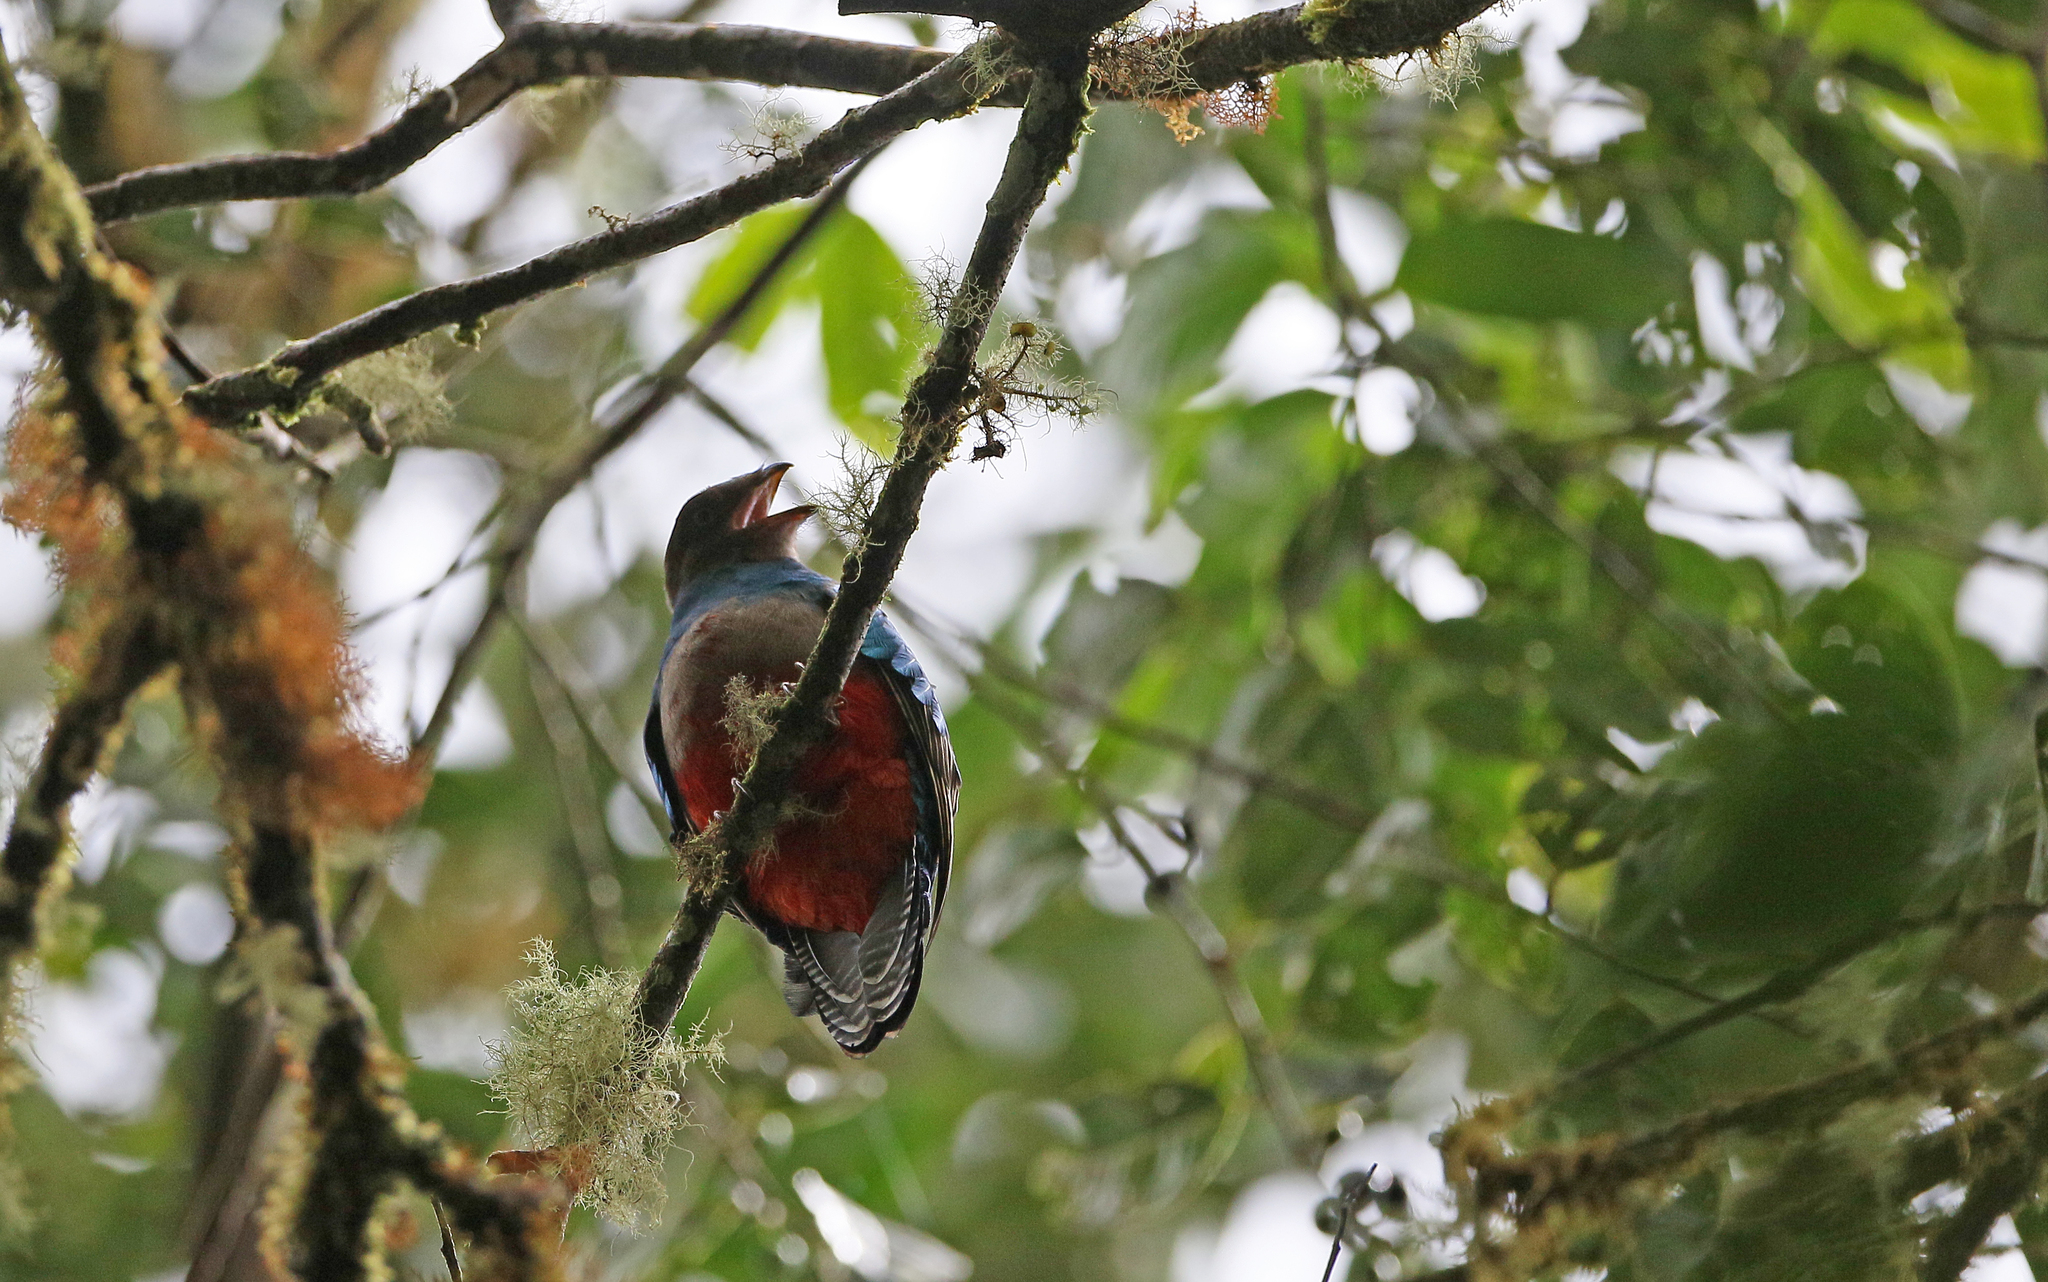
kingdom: Animalia
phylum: Chordata
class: Aves
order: Trogoniformes
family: Trogonidae
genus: Pharomachrus
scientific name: Pharomachrus antisianus
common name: Crested quetzal
